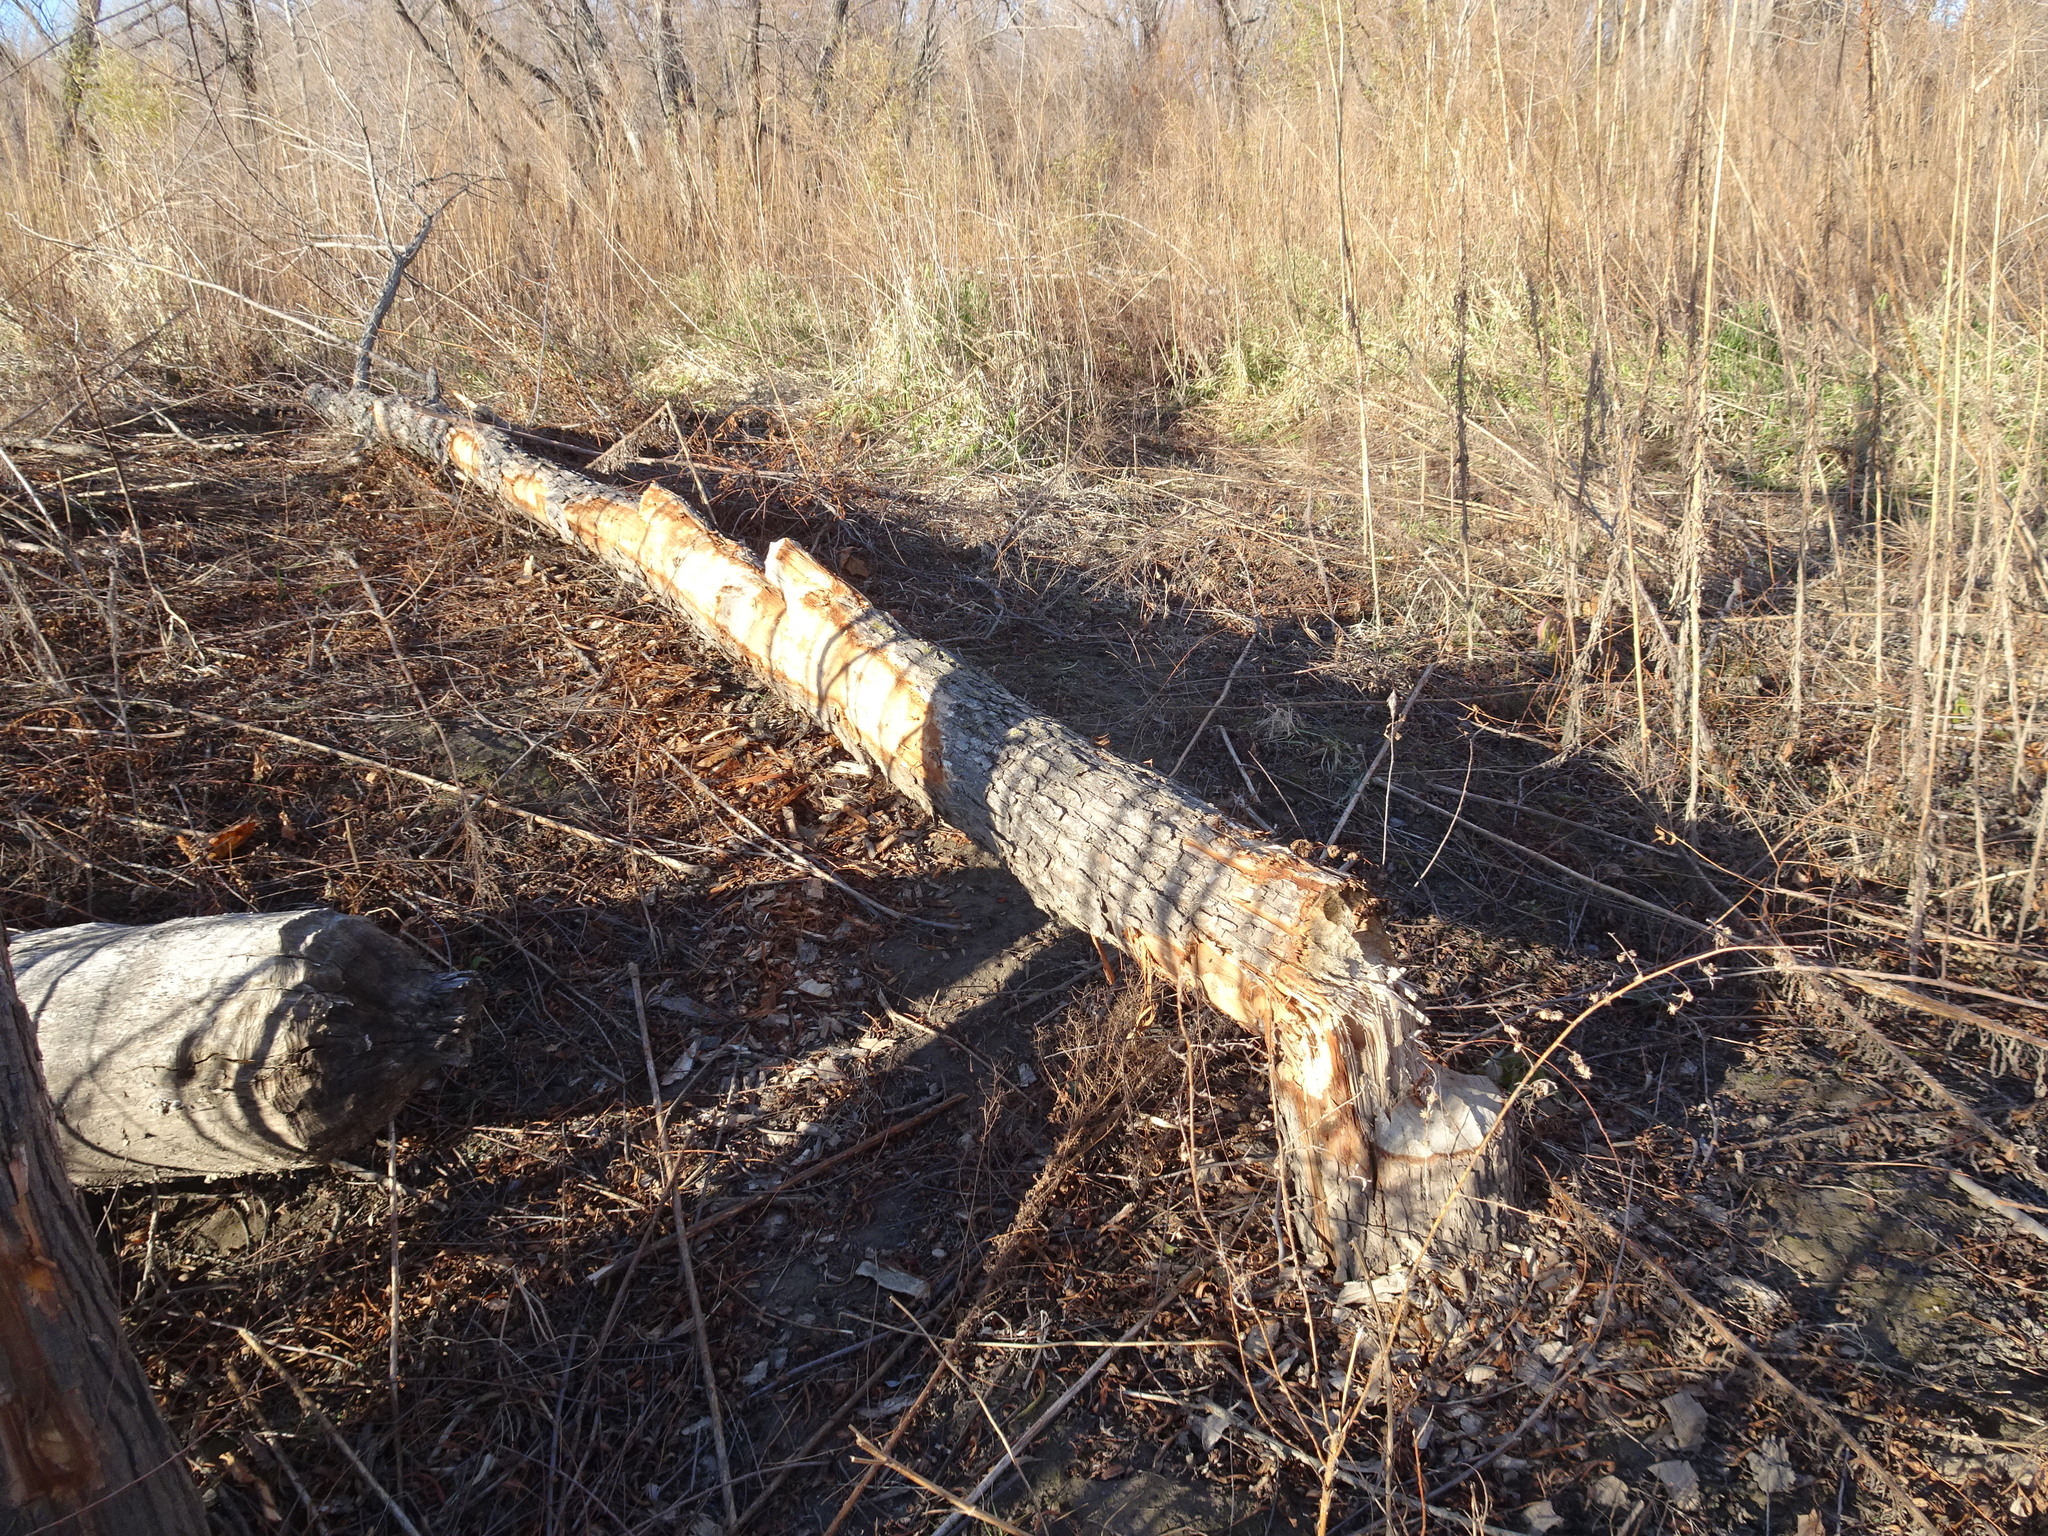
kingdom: Animalia
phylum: Chordata
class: Mammalia
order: Rodentia
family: Castoridae
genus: Castor
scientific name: Castor canadensis
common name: American beaver
